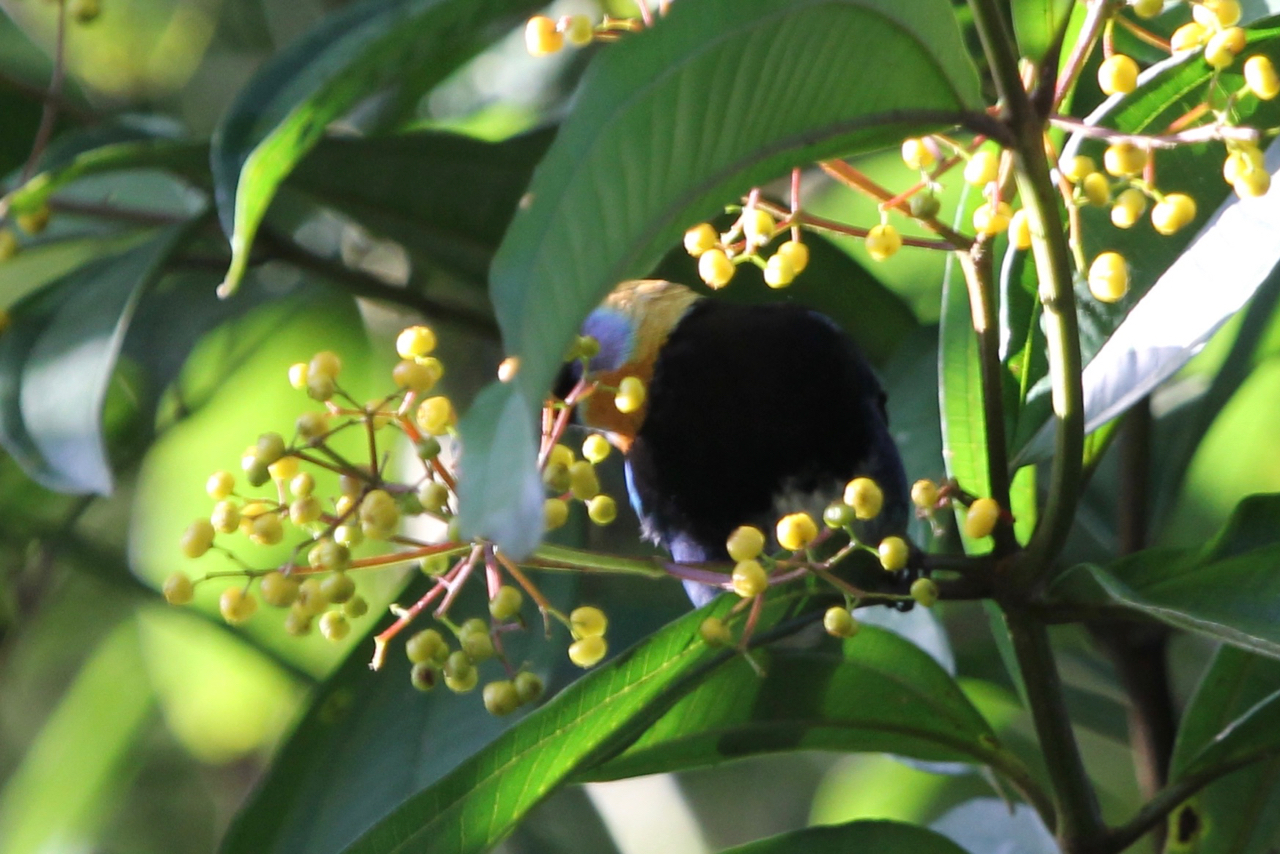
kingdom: Animalia
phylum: Chordata
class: Aves
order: Passeriformes
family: Thraupidae
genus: Stilpnia
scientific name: Stilpnia larvata
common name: Golden-hooded tanager
